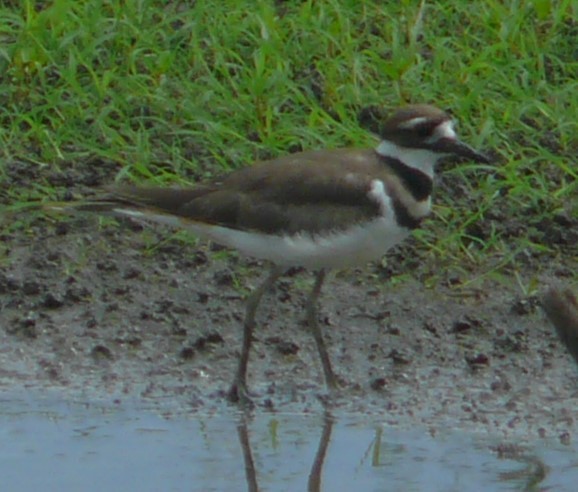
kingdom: Animalia
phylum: Chordata
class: Aves
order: Charadriiformes
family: Charadriidae
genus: Charadrius
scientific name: Charadrius vociferus
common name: Killdeer
